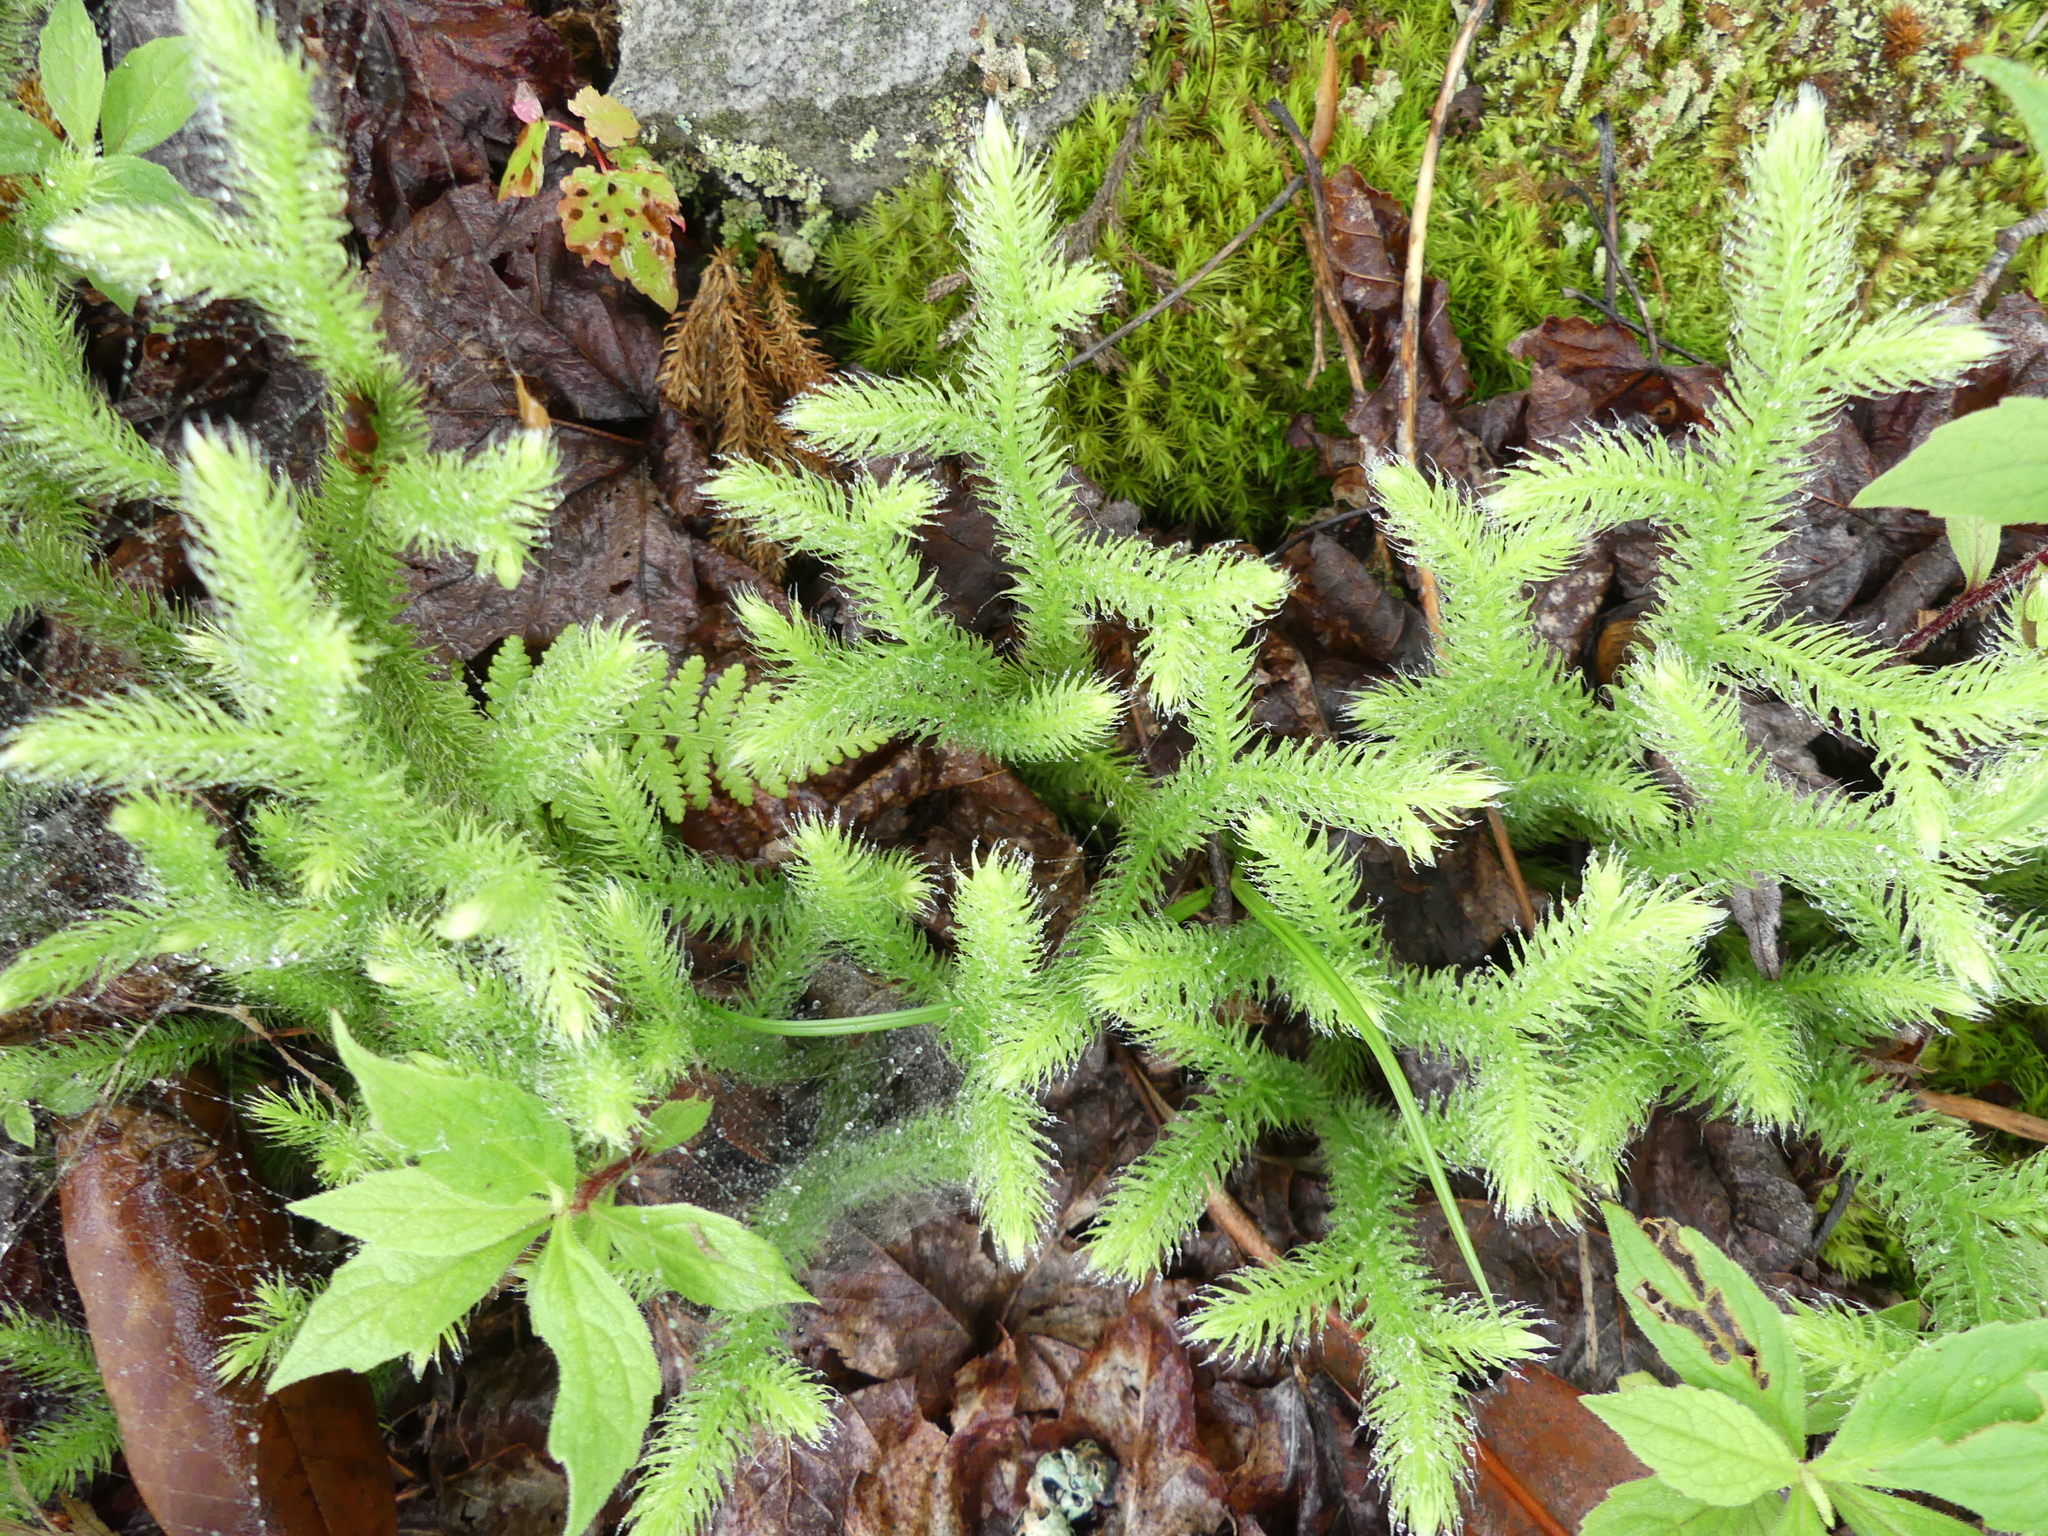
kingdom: Plantae
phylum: Tracheophyta
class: Lycopodiopsida
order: Lycopodiales
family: Lycopodiaceae
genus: Lycopodium
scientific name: Lycopodium clavatum
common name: Stag's-horn clubmoss
